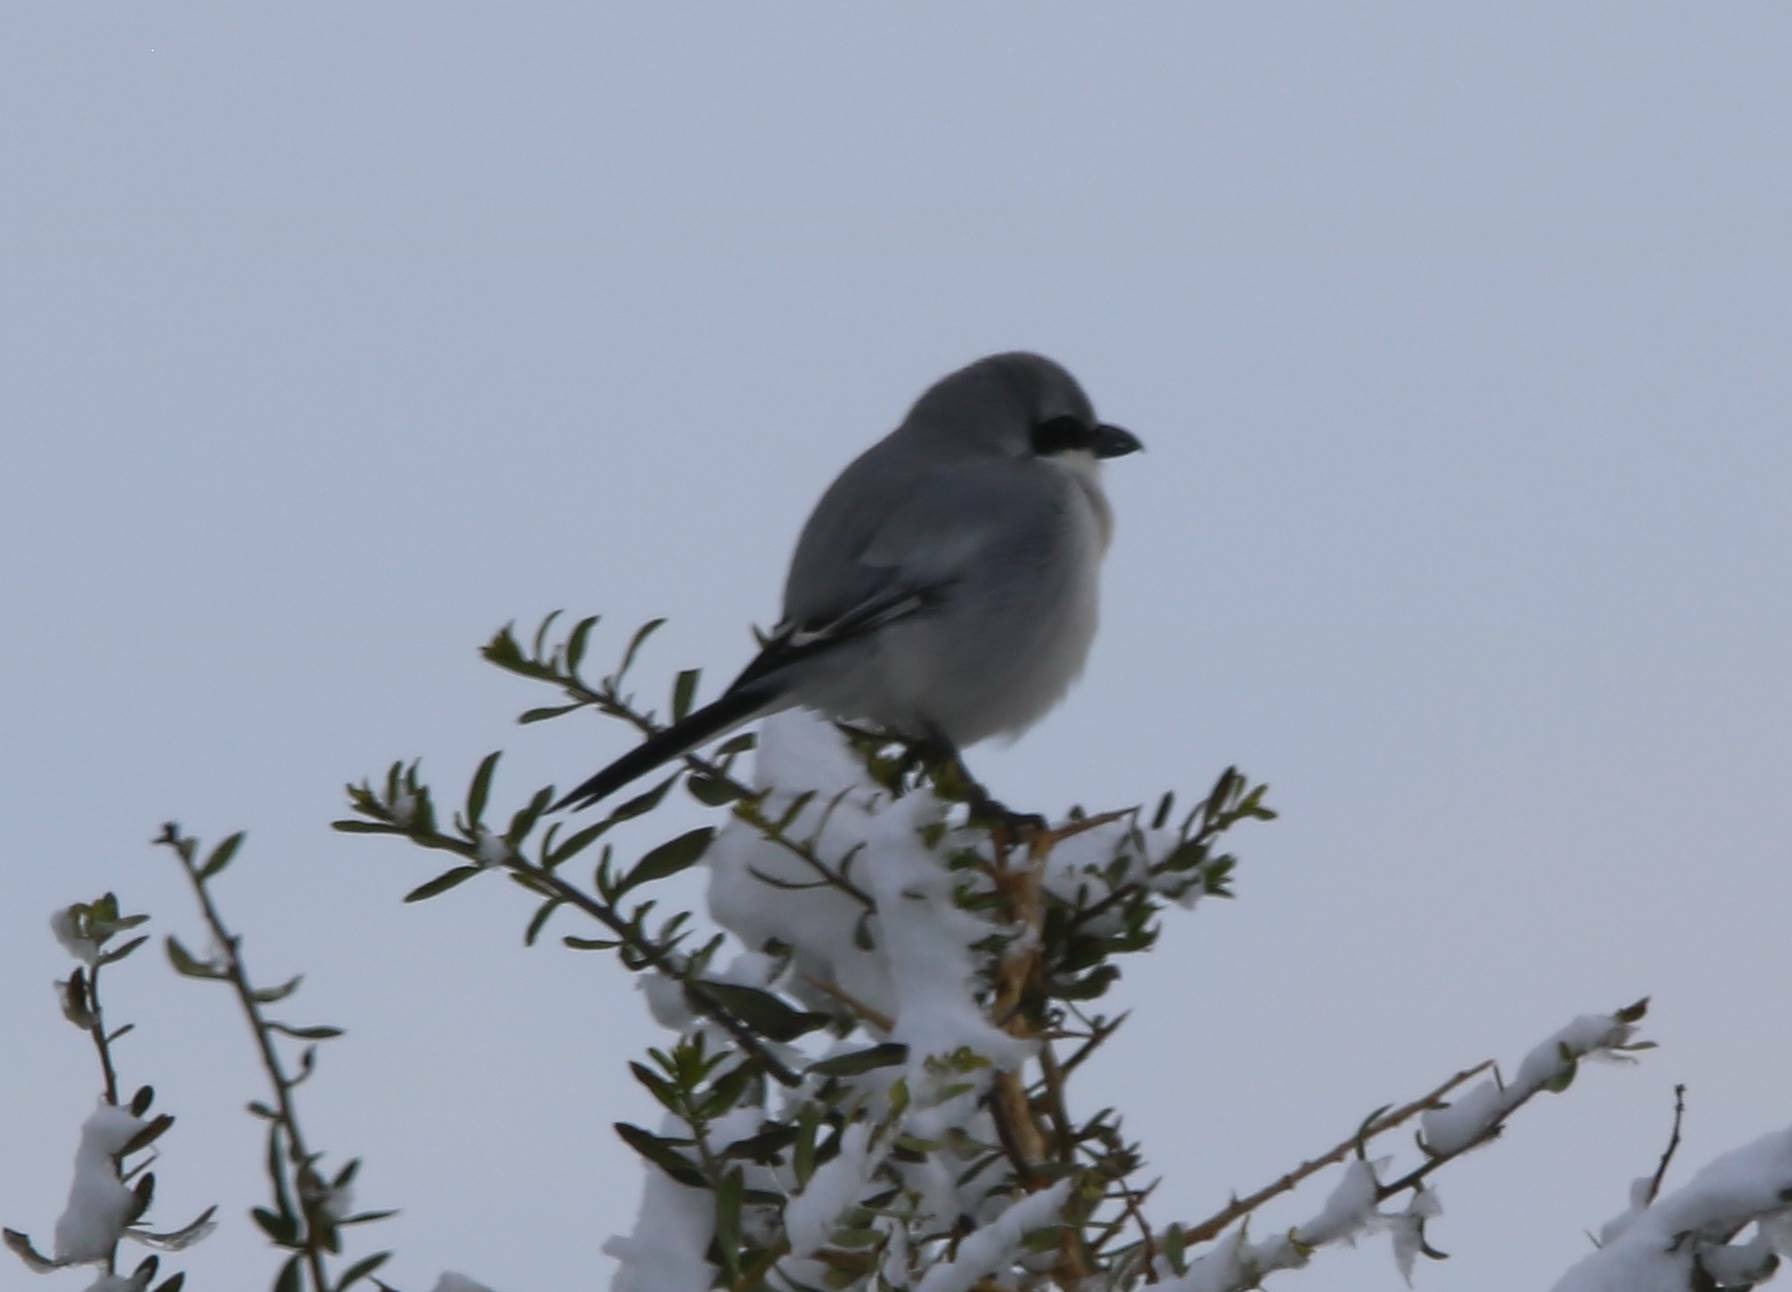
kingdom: Animalia
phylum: Chordata
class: Aves
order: Passeriformes
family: Laniidae
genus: Lanius
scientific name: Lanius excubitor
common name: Great grey shrike
